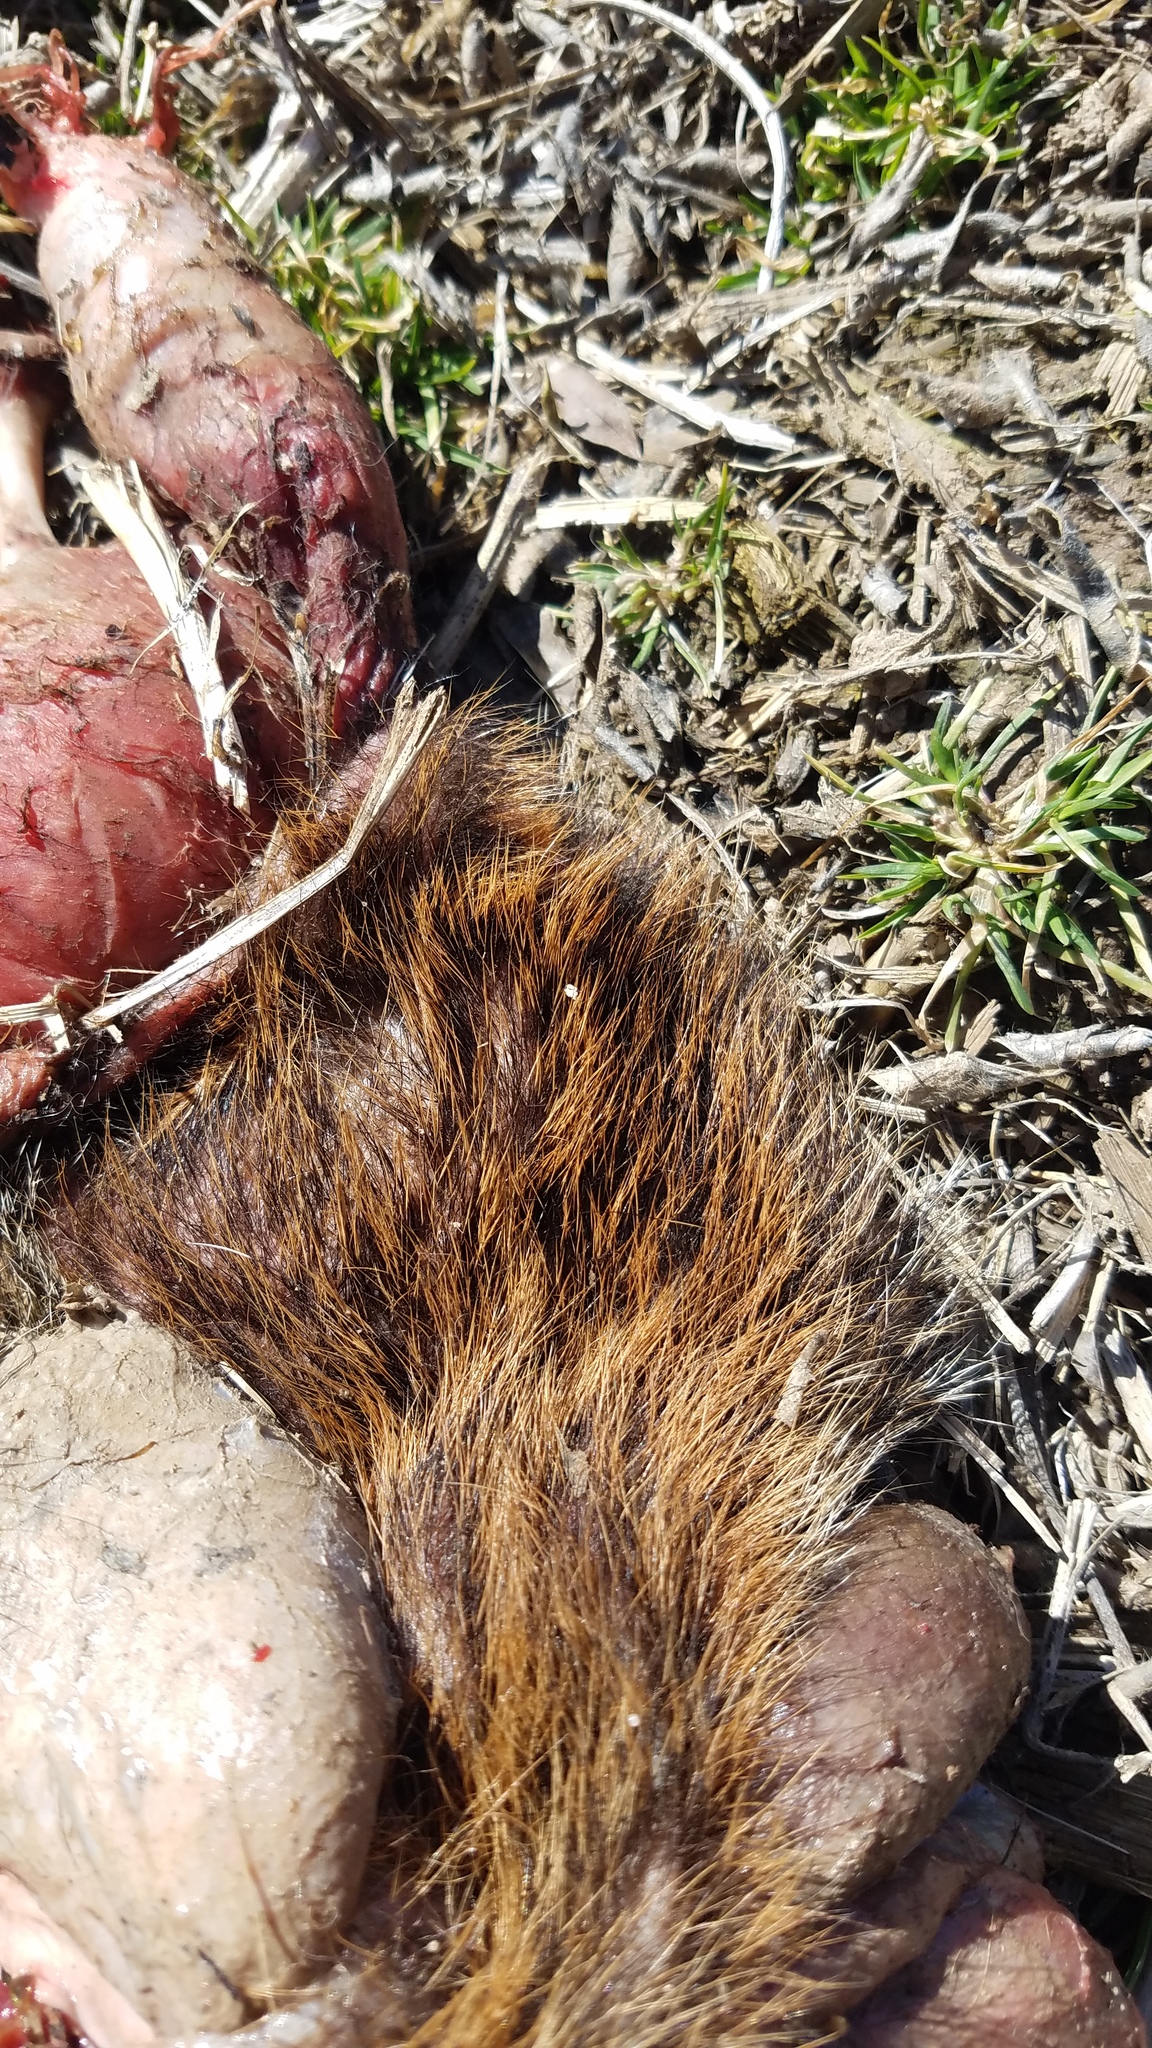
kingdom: Animalia
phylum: Chordata
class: Mammalia
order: Rodentia
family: Sciuridae
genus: Marmota
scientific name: Marmota monax
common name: Groundhog
